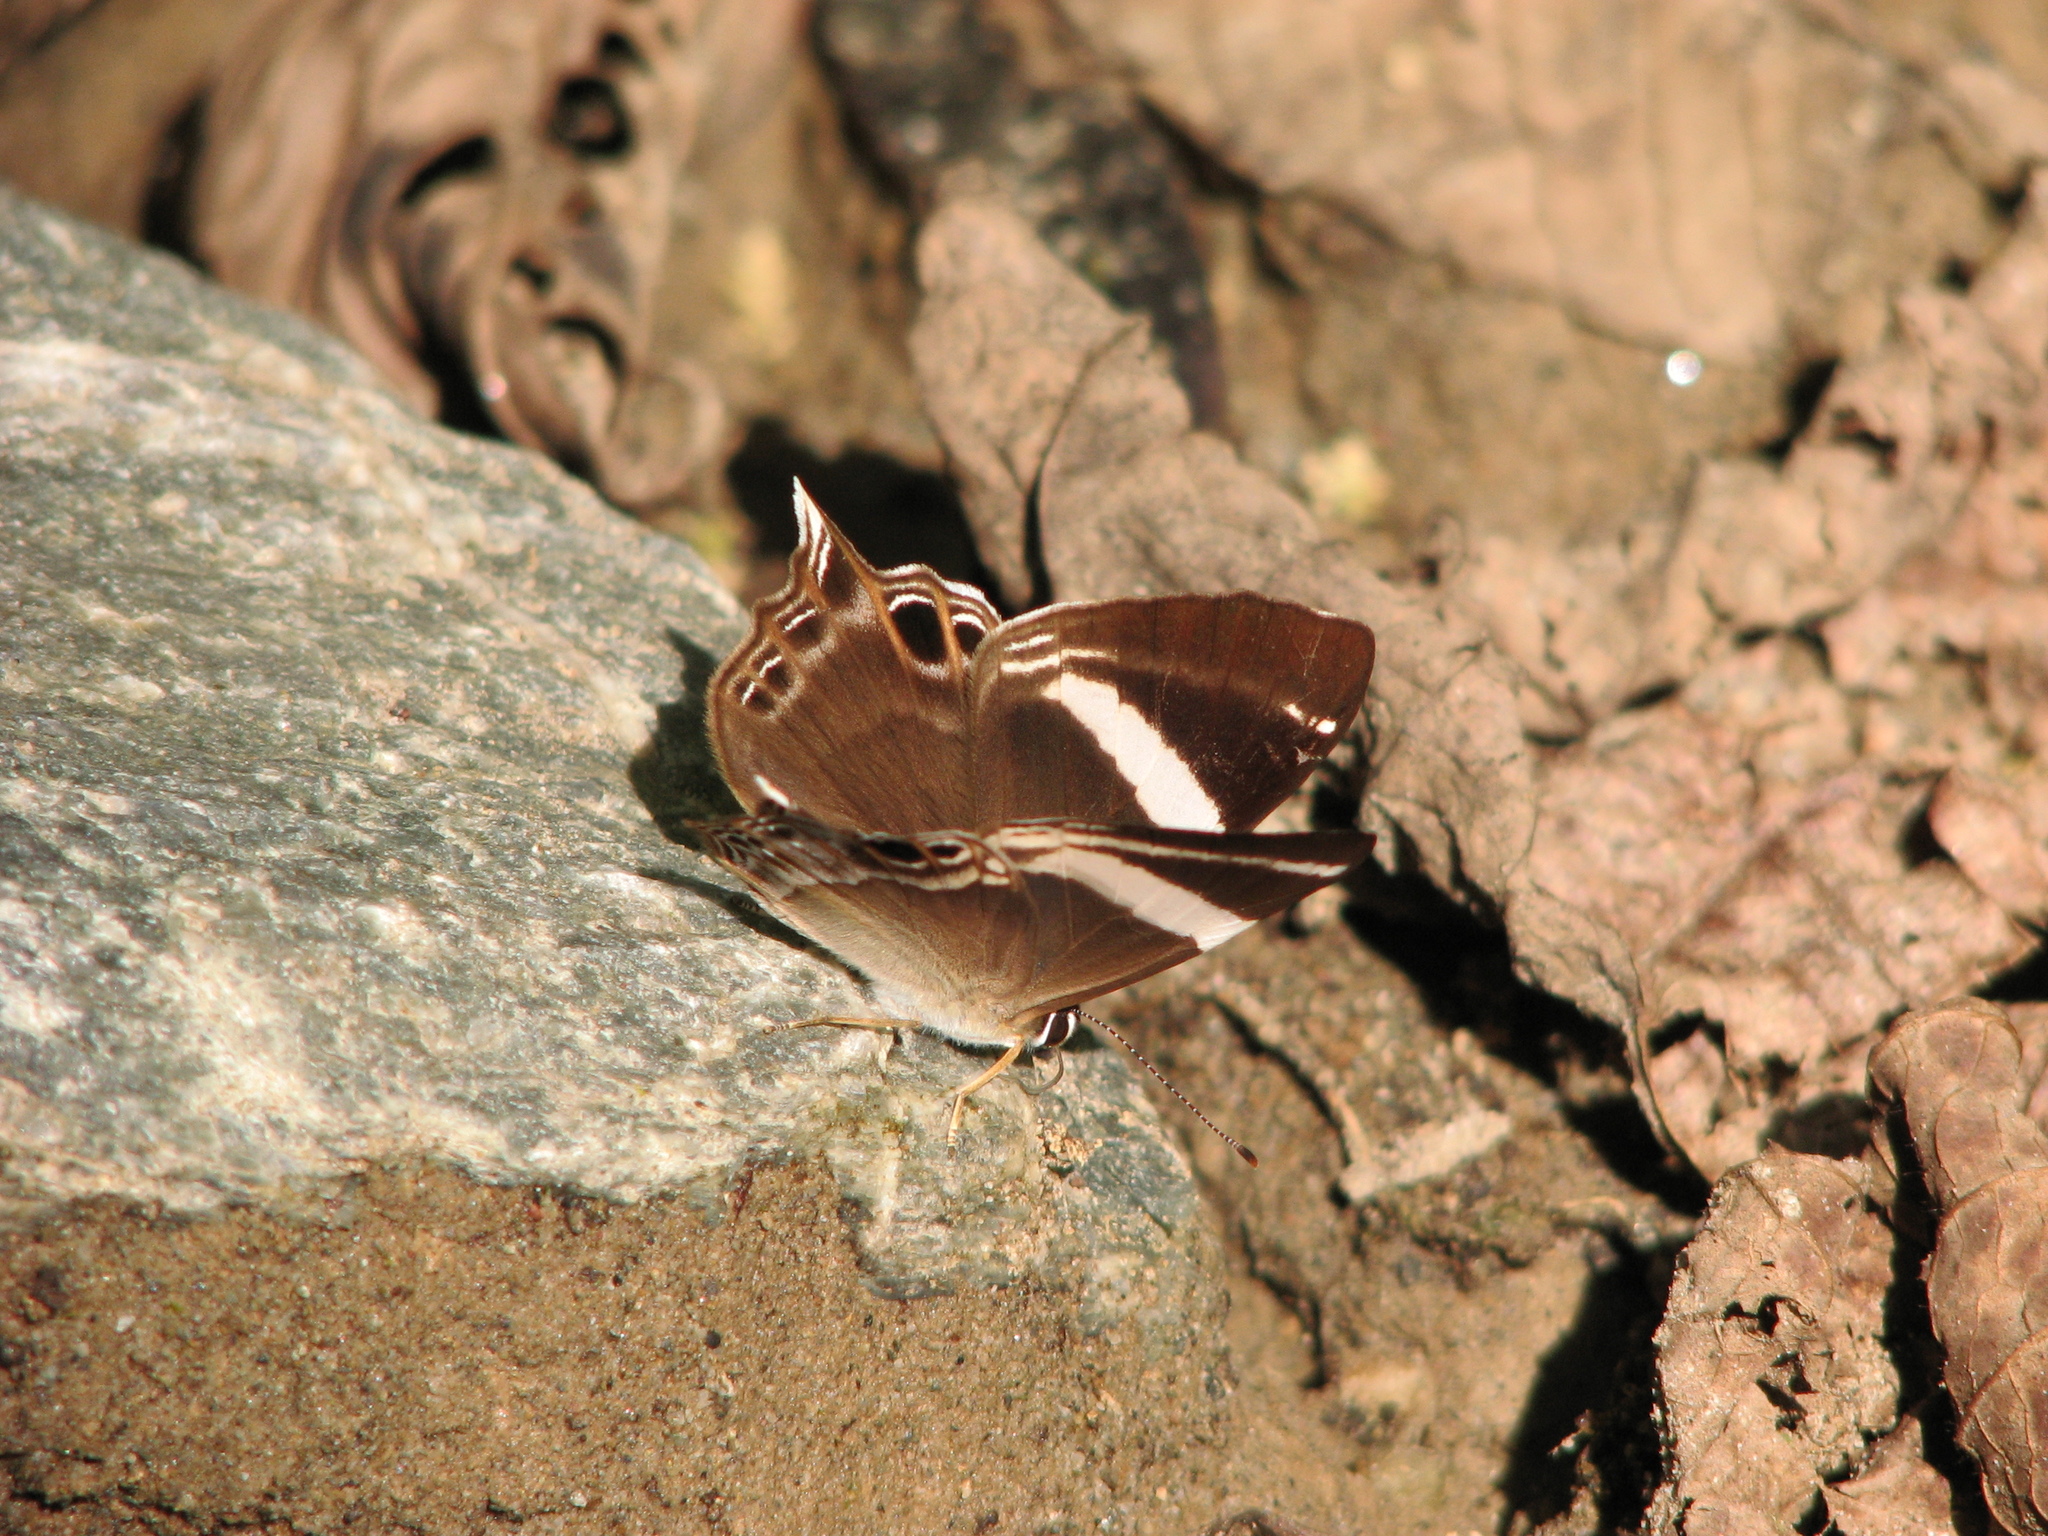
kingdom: Animalia
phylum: Arthropoda
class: Insecta
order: Lepidoptera
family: Lycaenidae
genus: Abisara
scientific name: Abisara chela
